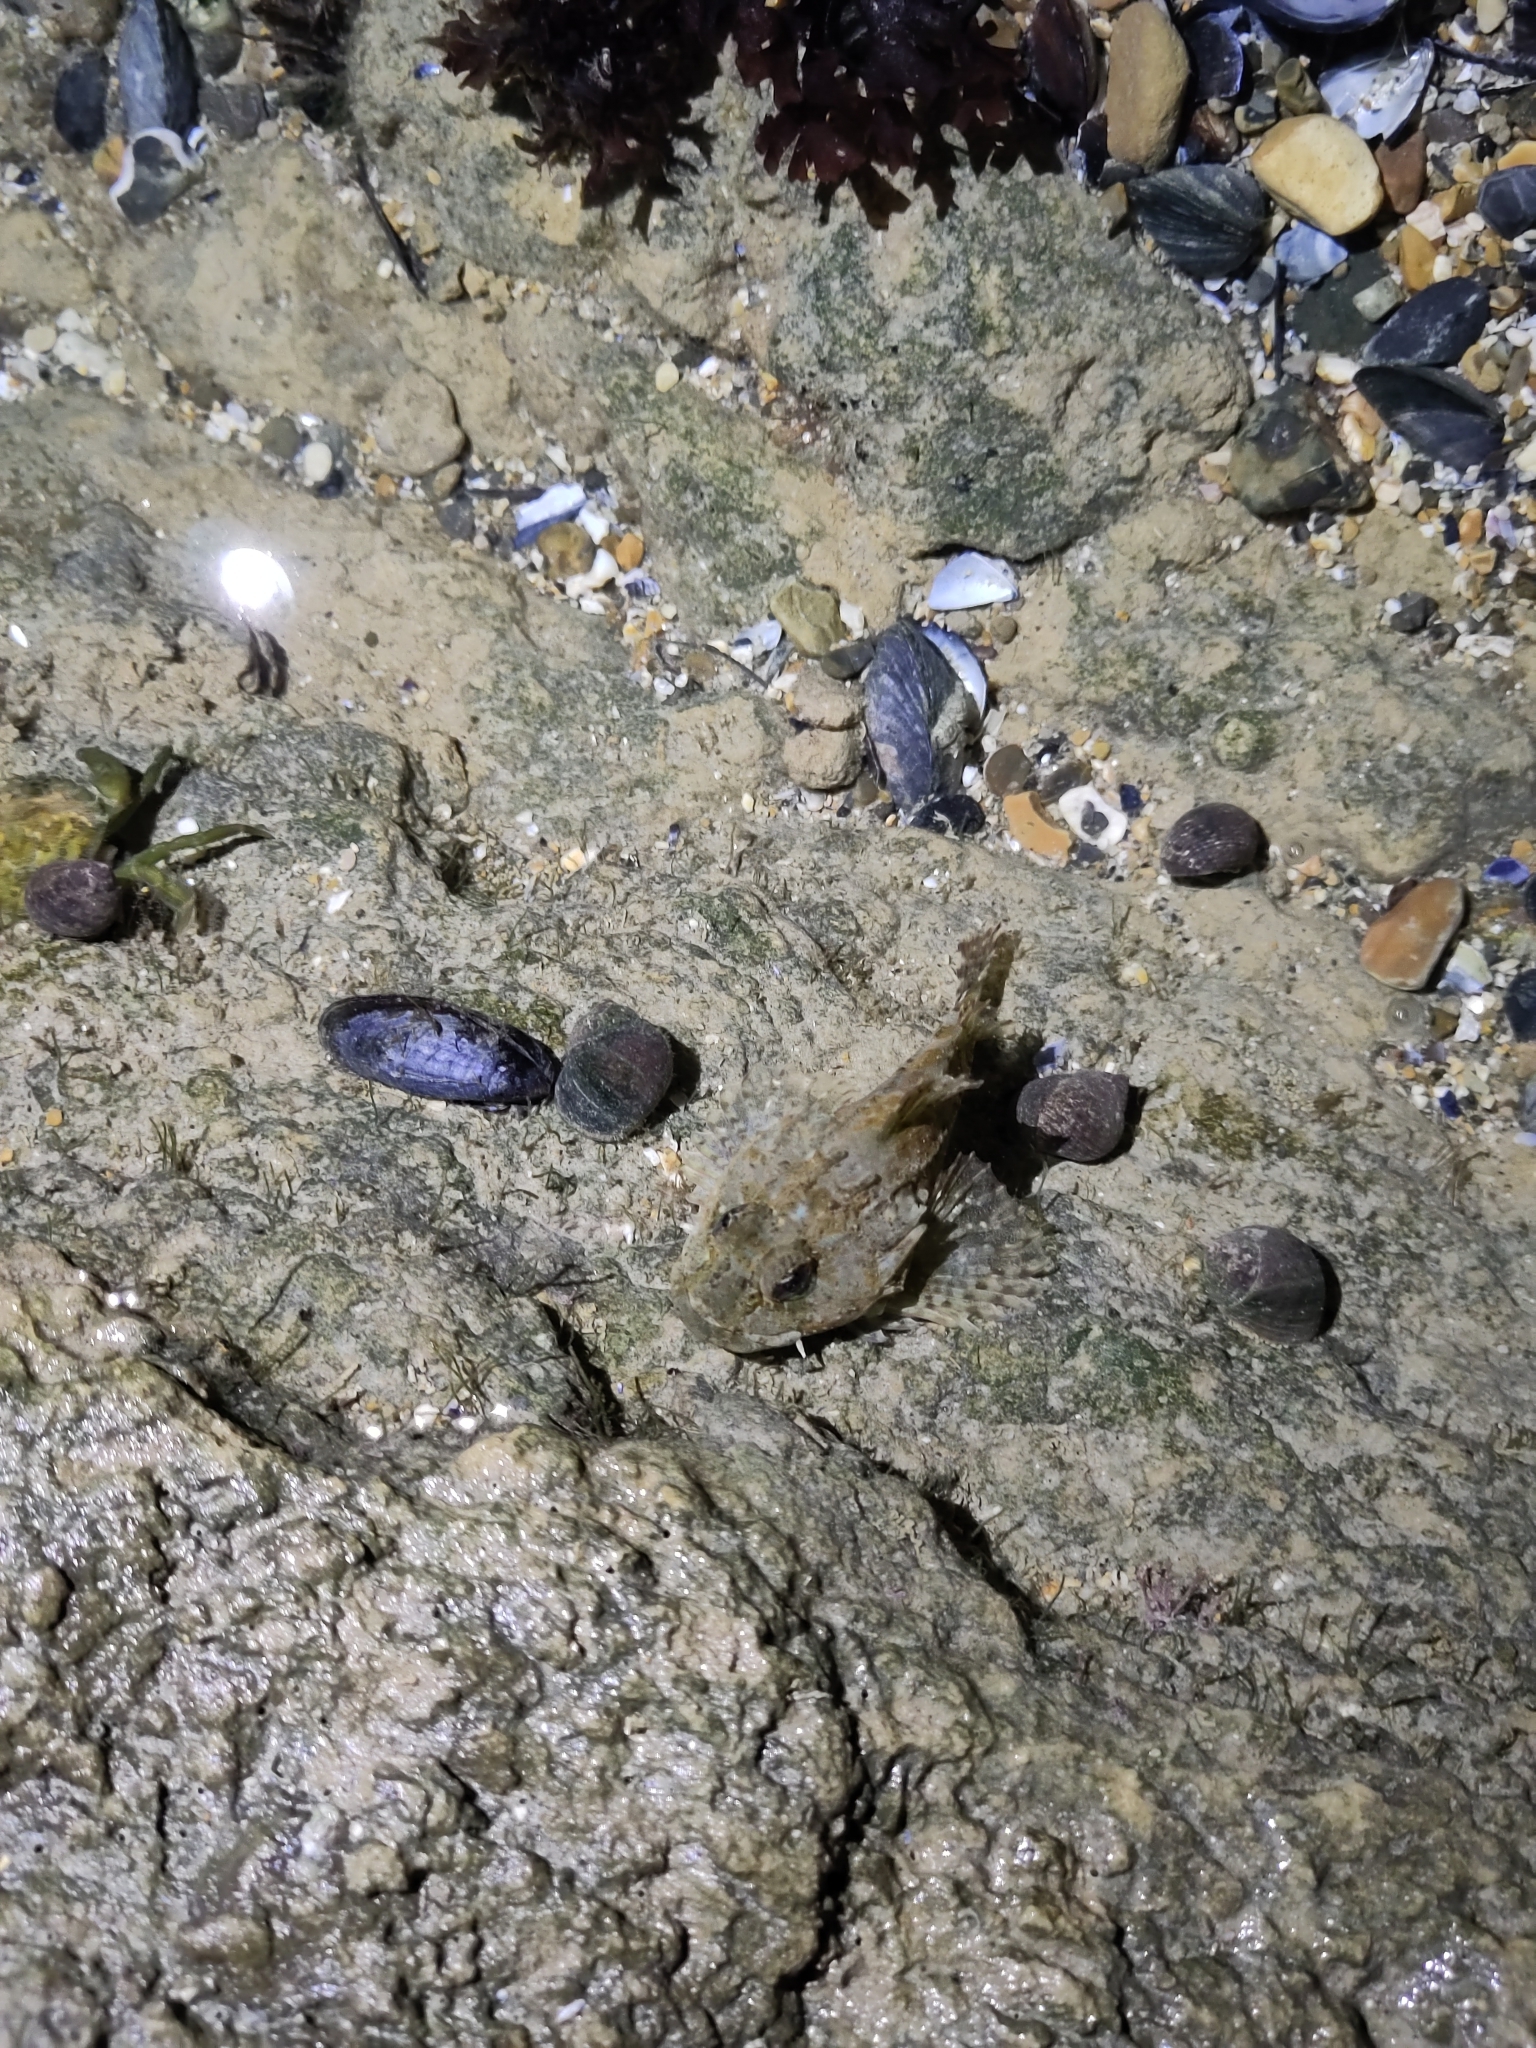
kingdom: Animalia
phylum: Chordata
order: Scorpaeniformes
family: Cottidae
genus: Taurulus
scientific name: Taurulus bubalis
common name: Sea scorpion
